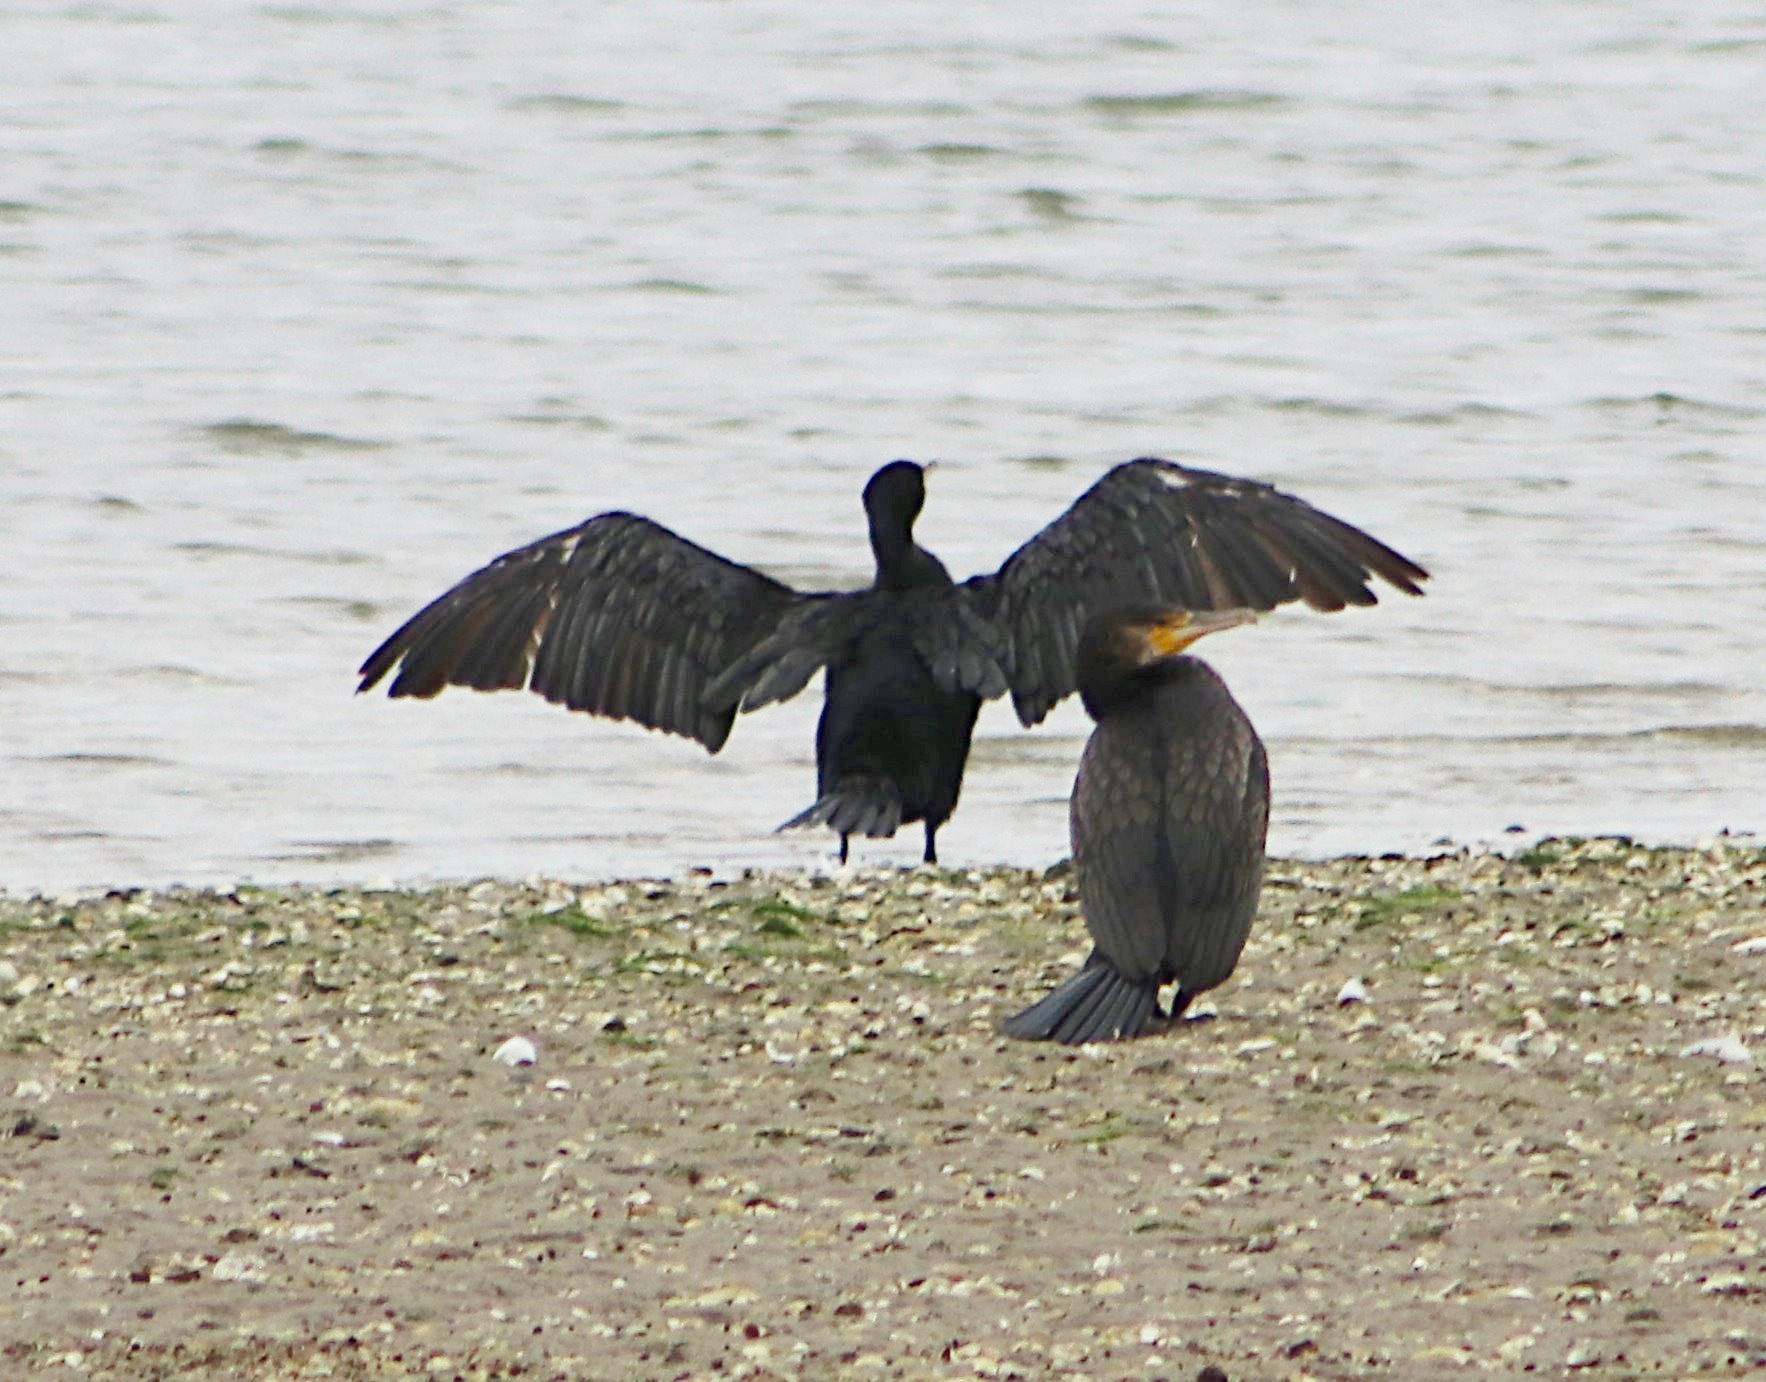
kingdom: Animalia
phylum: Chordata
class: Aves
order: Suliformes
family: Phalacrocoracidae
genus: Phalacrocorax
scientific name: Phalacrocorax carbo
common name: Great cormorant
